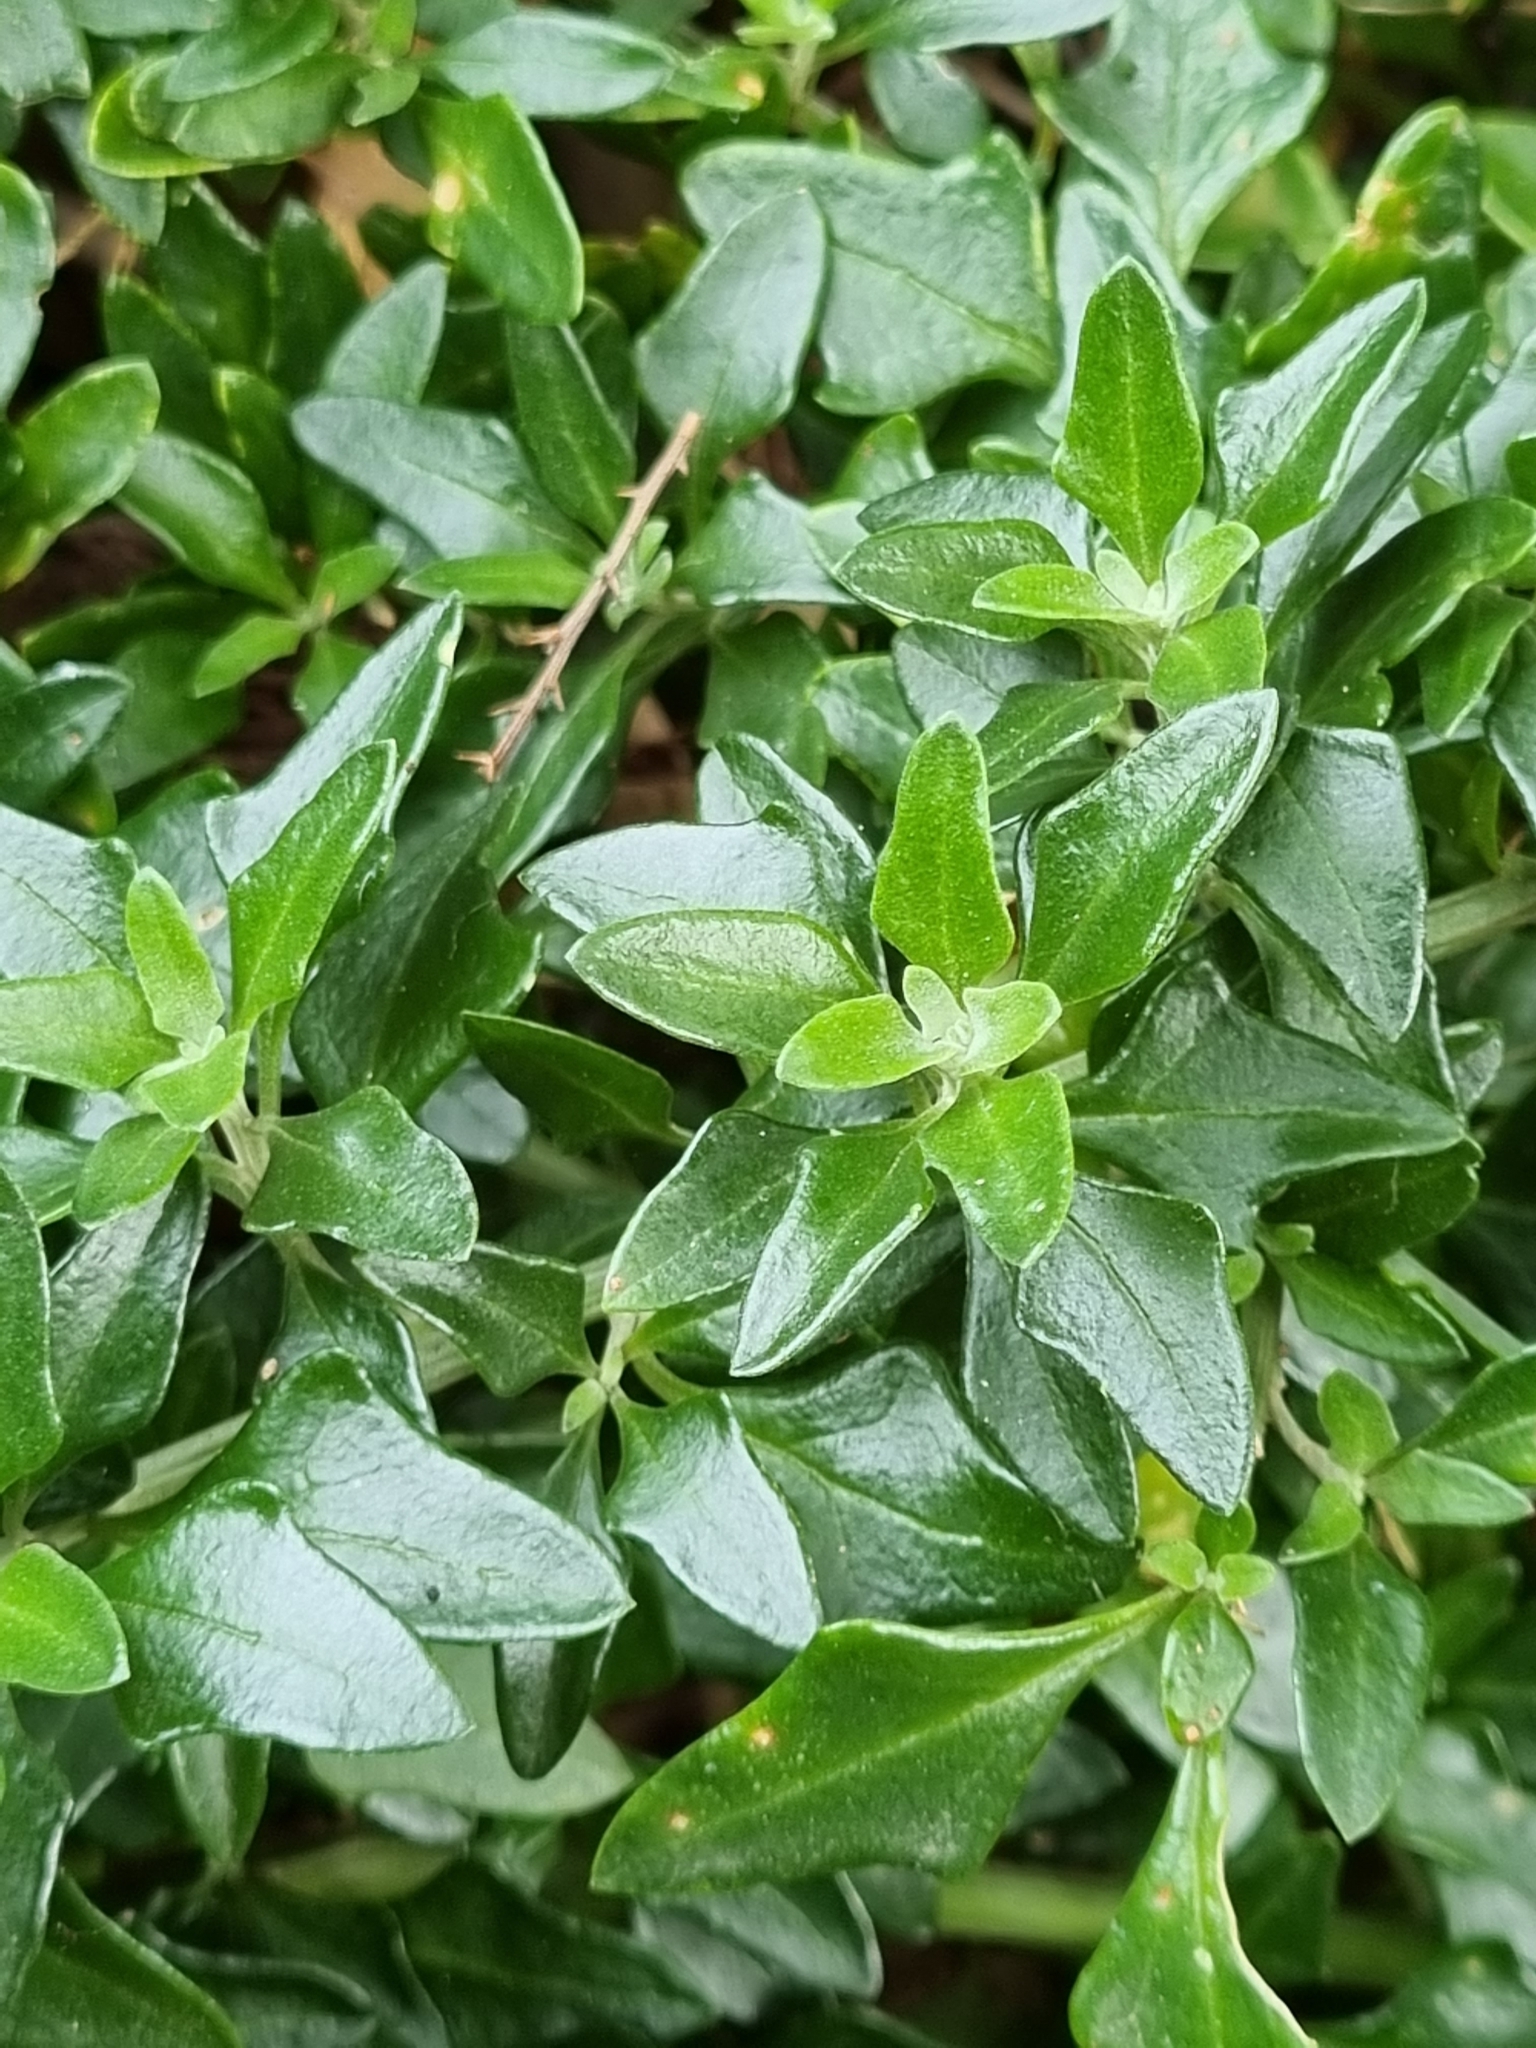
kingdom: Plantae
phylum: Tracheophyta
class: Magnoliopsida
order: Caryophyllales
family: Amaranthaceae
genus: Chenopodium
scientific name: Chenopodium candolleanum
